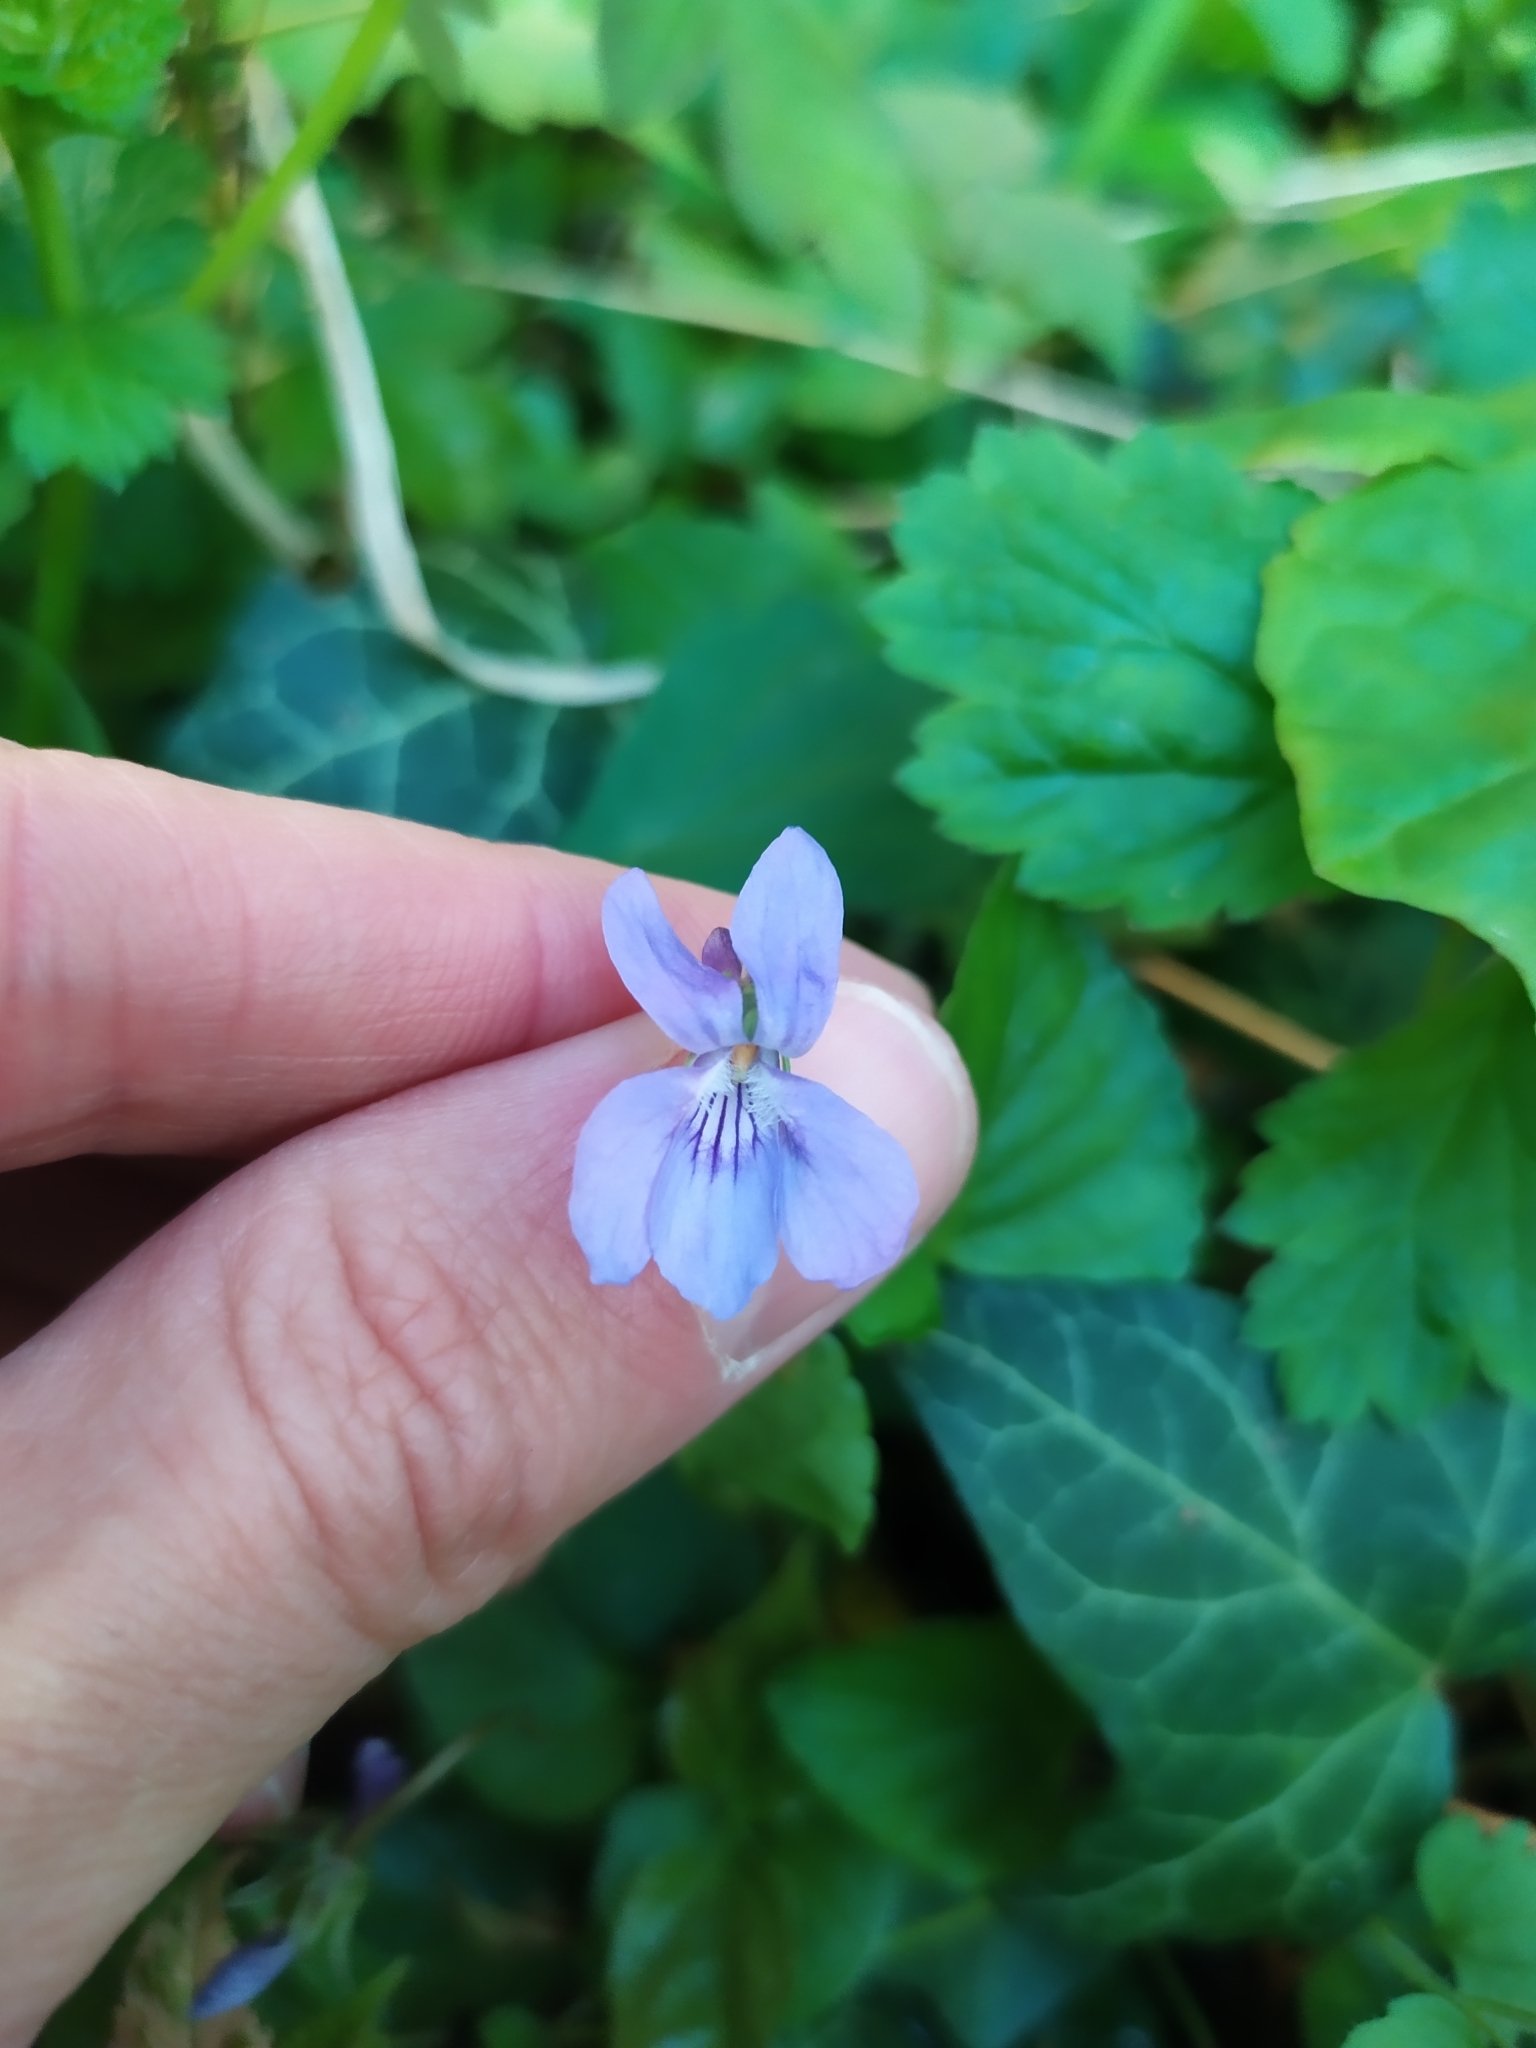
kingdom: Plantae
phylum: Tracheophyta
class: Magnoliopsida
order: Malpighiales
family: Violaceae
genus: Viola
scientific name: Viola reichenbachiana
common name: Early dog-violet
